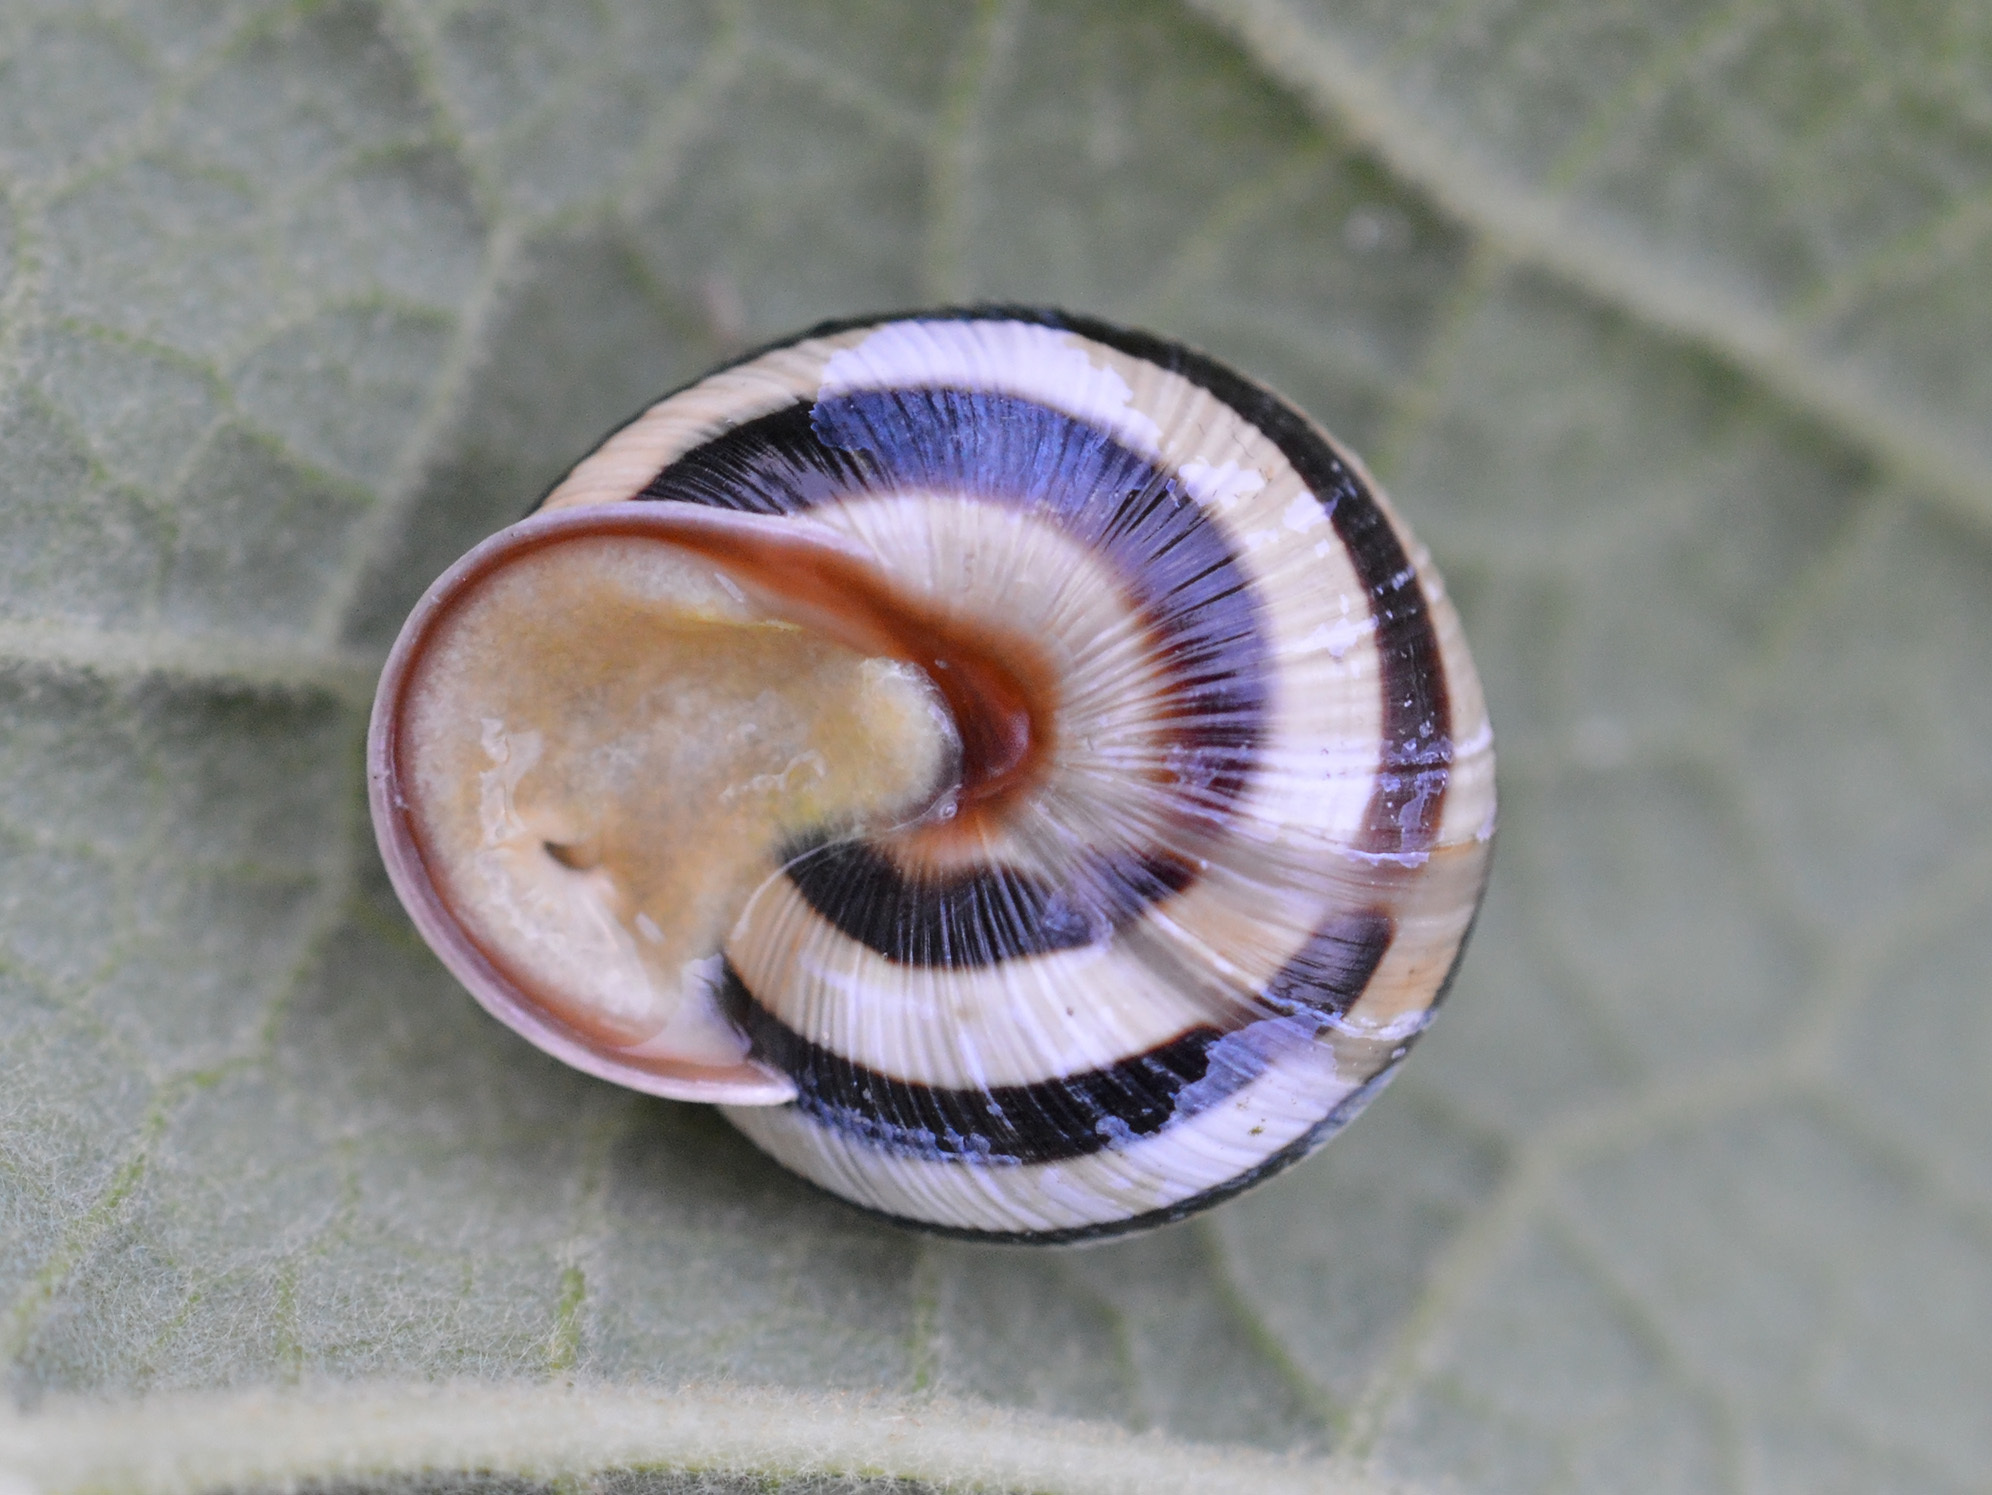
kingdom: Animalia
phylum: Mollusca
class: Gastropoda
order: Stylommatophora
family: Helicidae
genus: Caucasotachea
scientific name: Caucasotachea vindobonensis
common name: European helicid land snail
